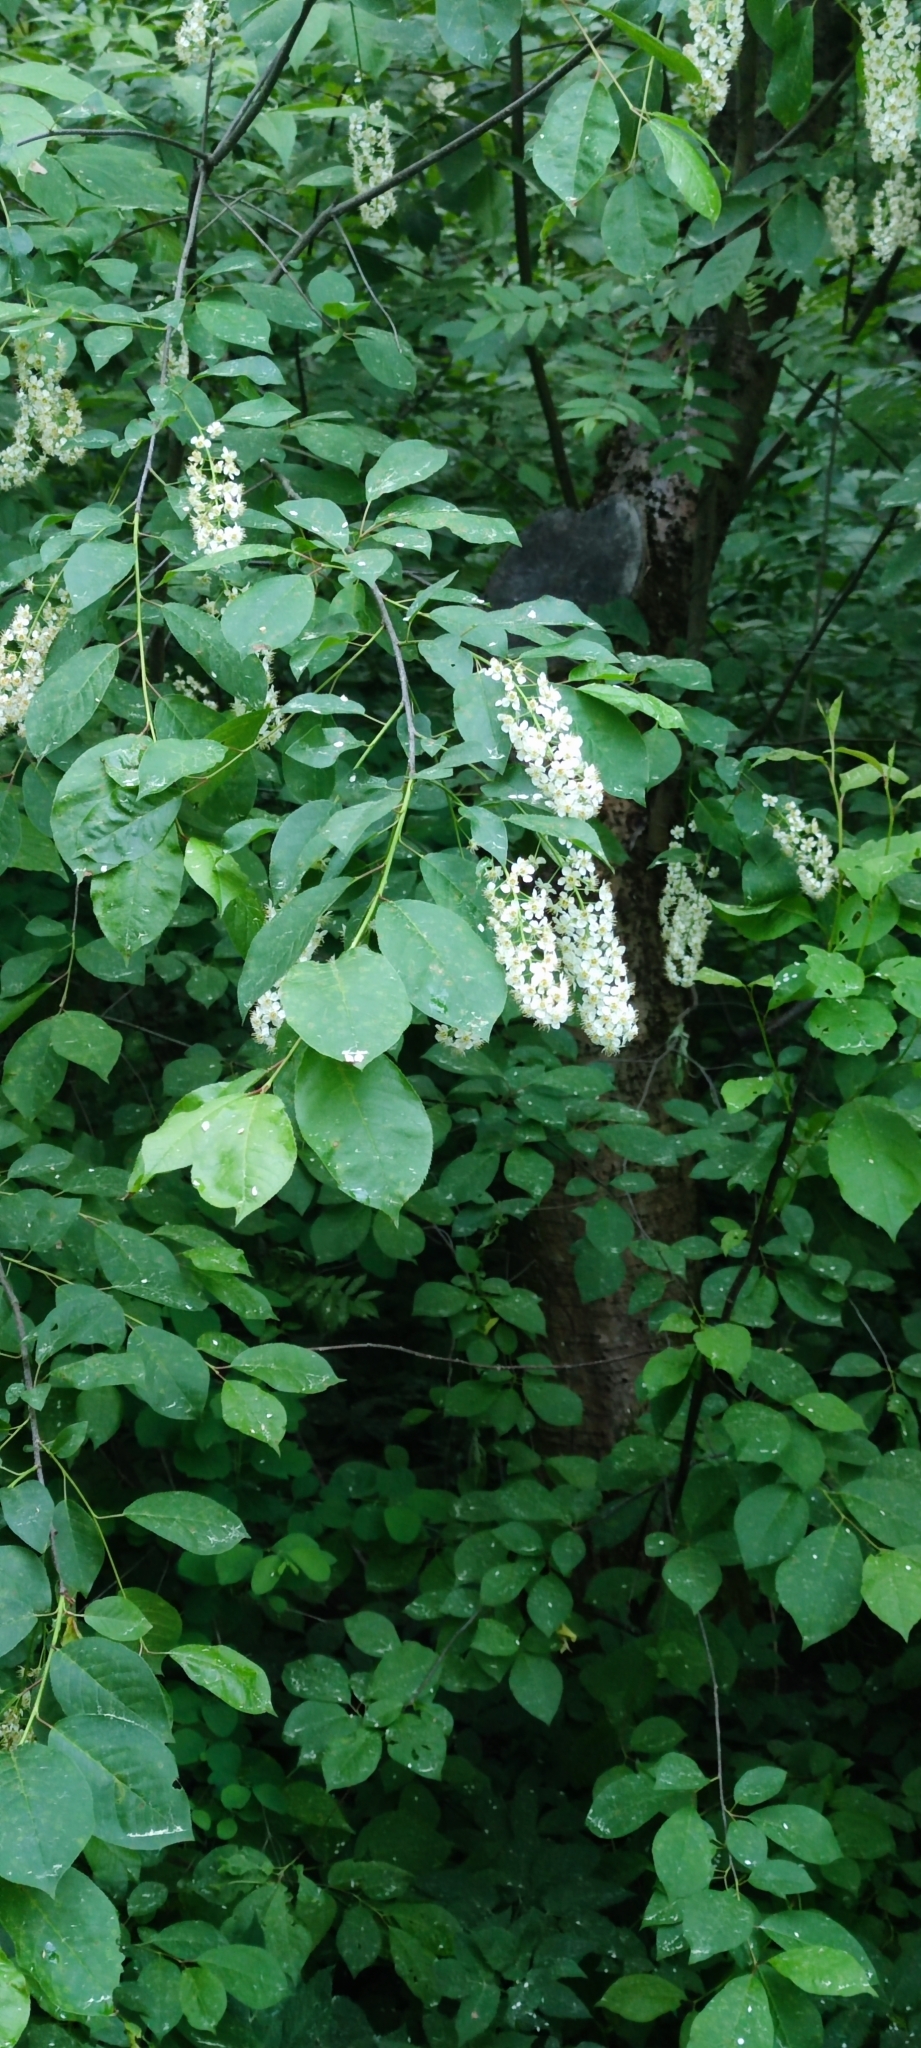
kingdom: Plantae
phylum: Tracheophyta
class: Magnoliopsida
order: Rosales
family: Rosaceae
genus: Prunus
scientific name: Prunus padus
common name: Bird cherry
